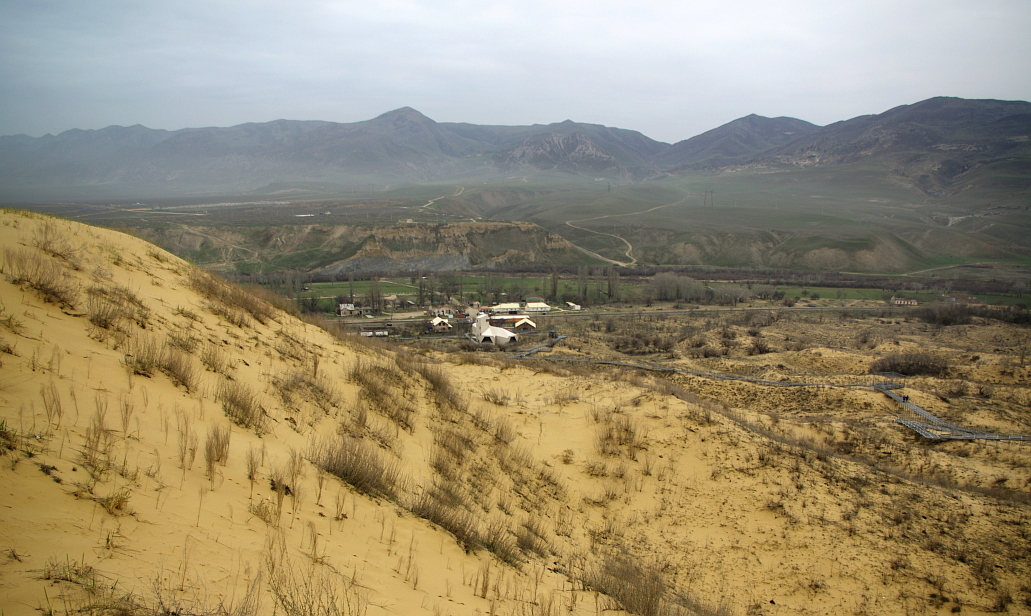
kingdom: Plantae
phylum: Tracheophyta
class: Magnoliopsida
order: Asterales
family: Asteraceae
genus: Artemisia
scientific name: Artemisia arenaria
